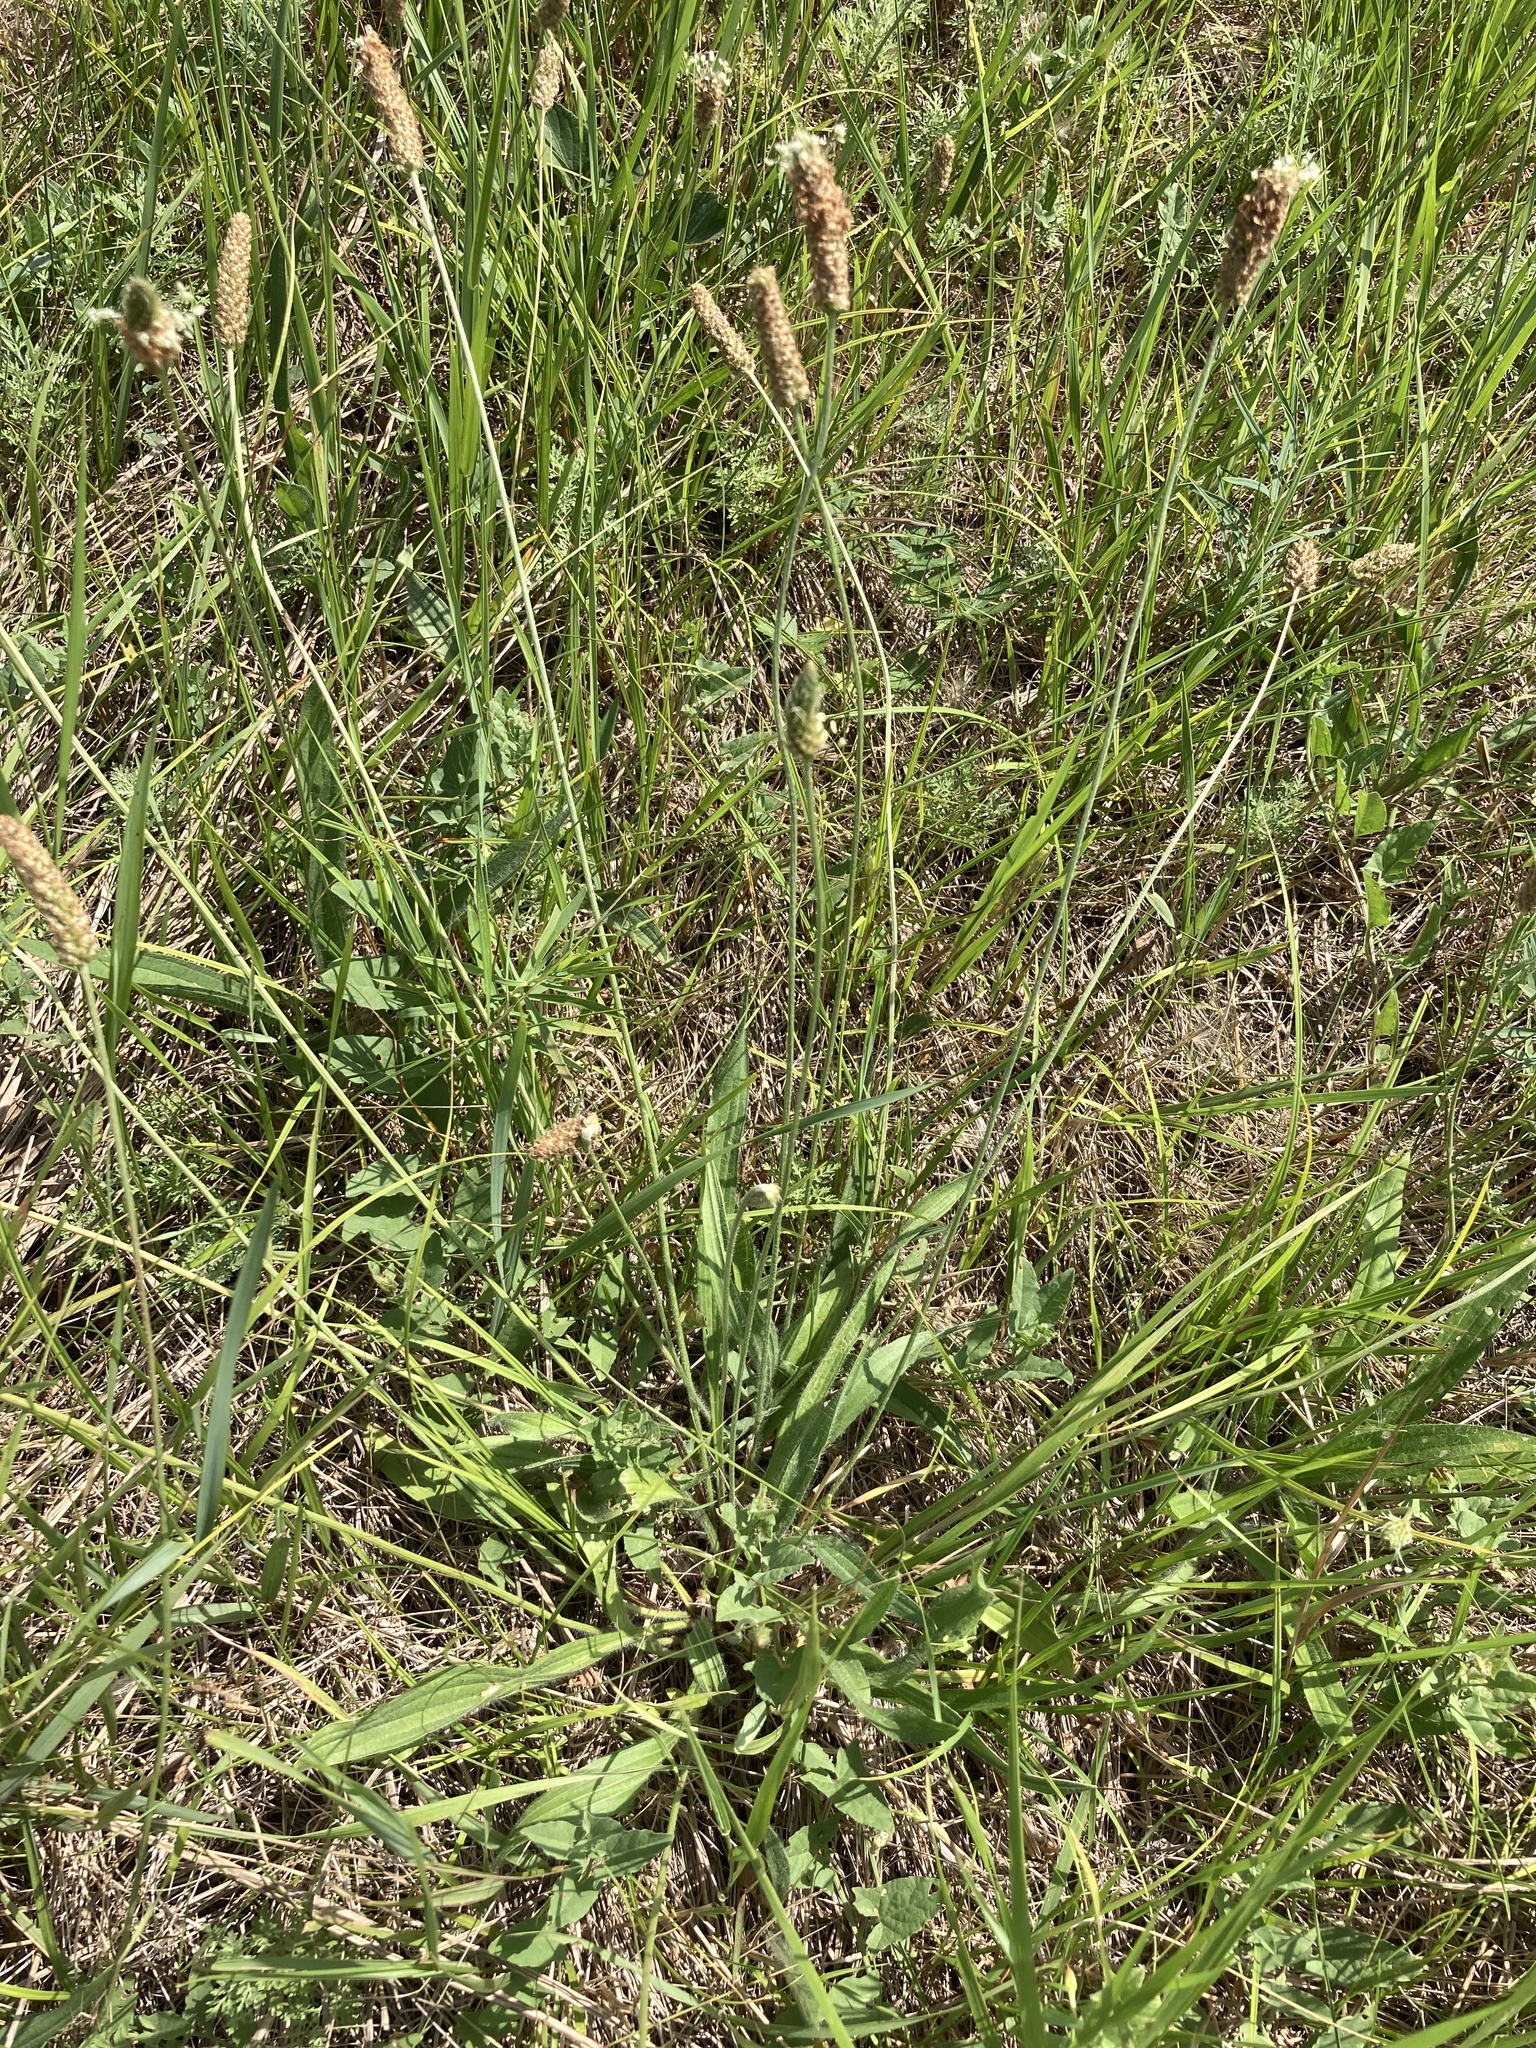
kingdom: Plantae
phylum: Tracheophyta
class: Magnoliopsida
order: Lamiales
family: Plantaginaceae
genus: Plantago
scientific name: Plantago lanceolata
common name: Ribwort plantain
